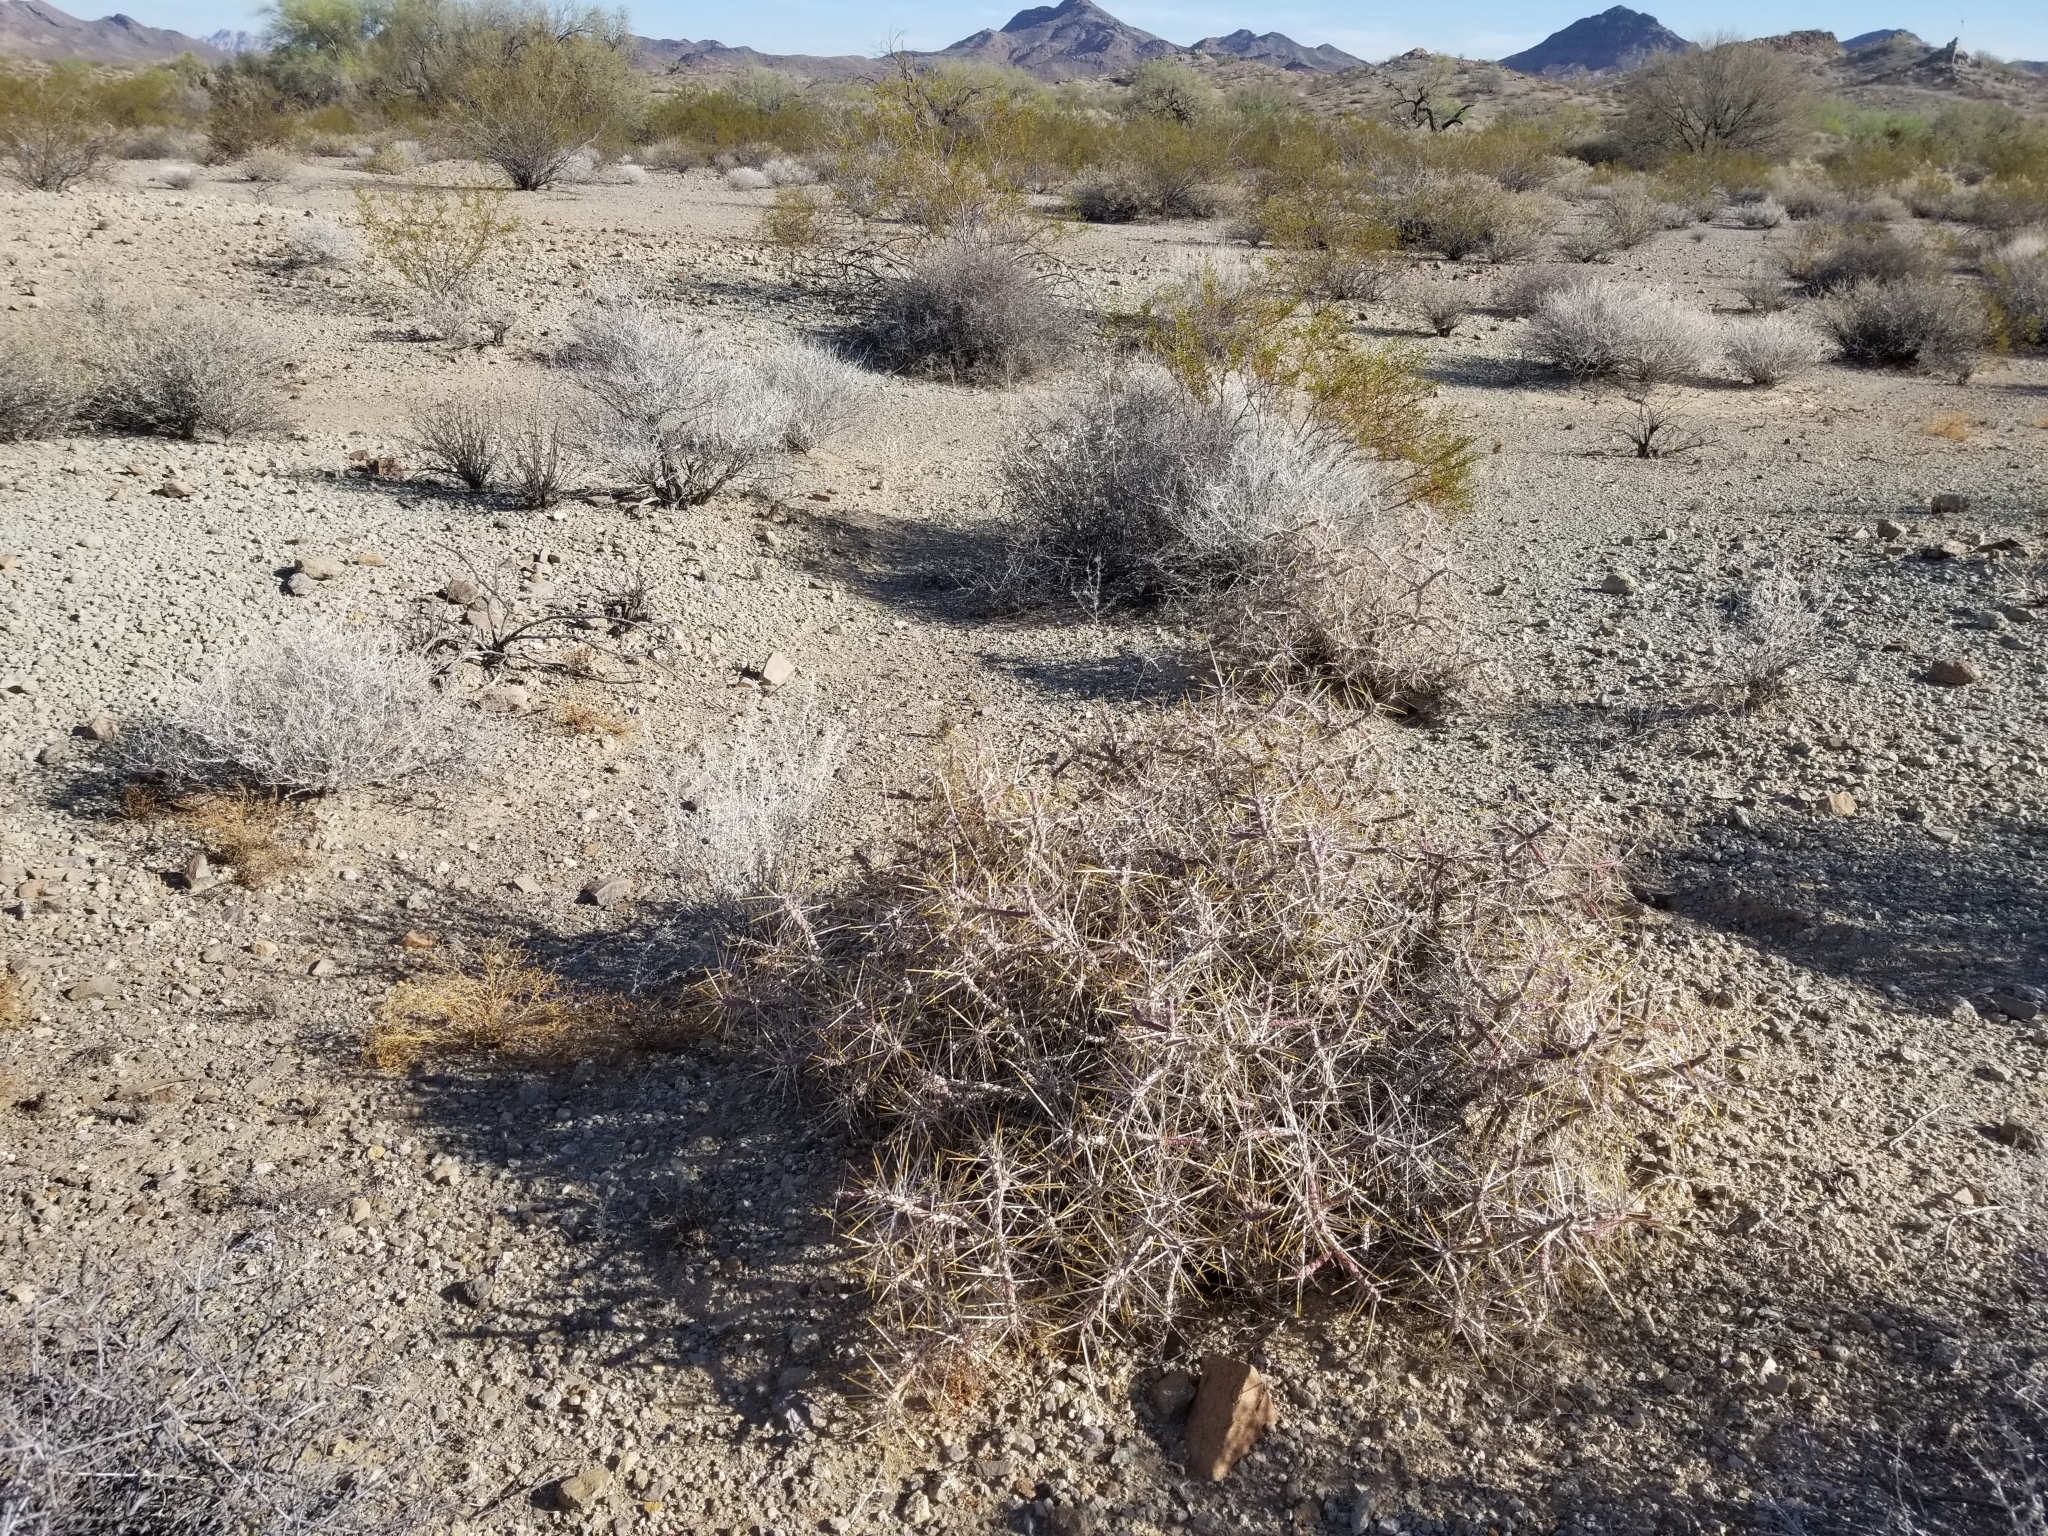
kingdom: Plantae
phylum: Tracheophyta
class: Magnoliopsida
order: Caryophyllales
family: Cactaceae
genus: Cylindropuntia
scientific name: Cylindropuntia ramosissima
